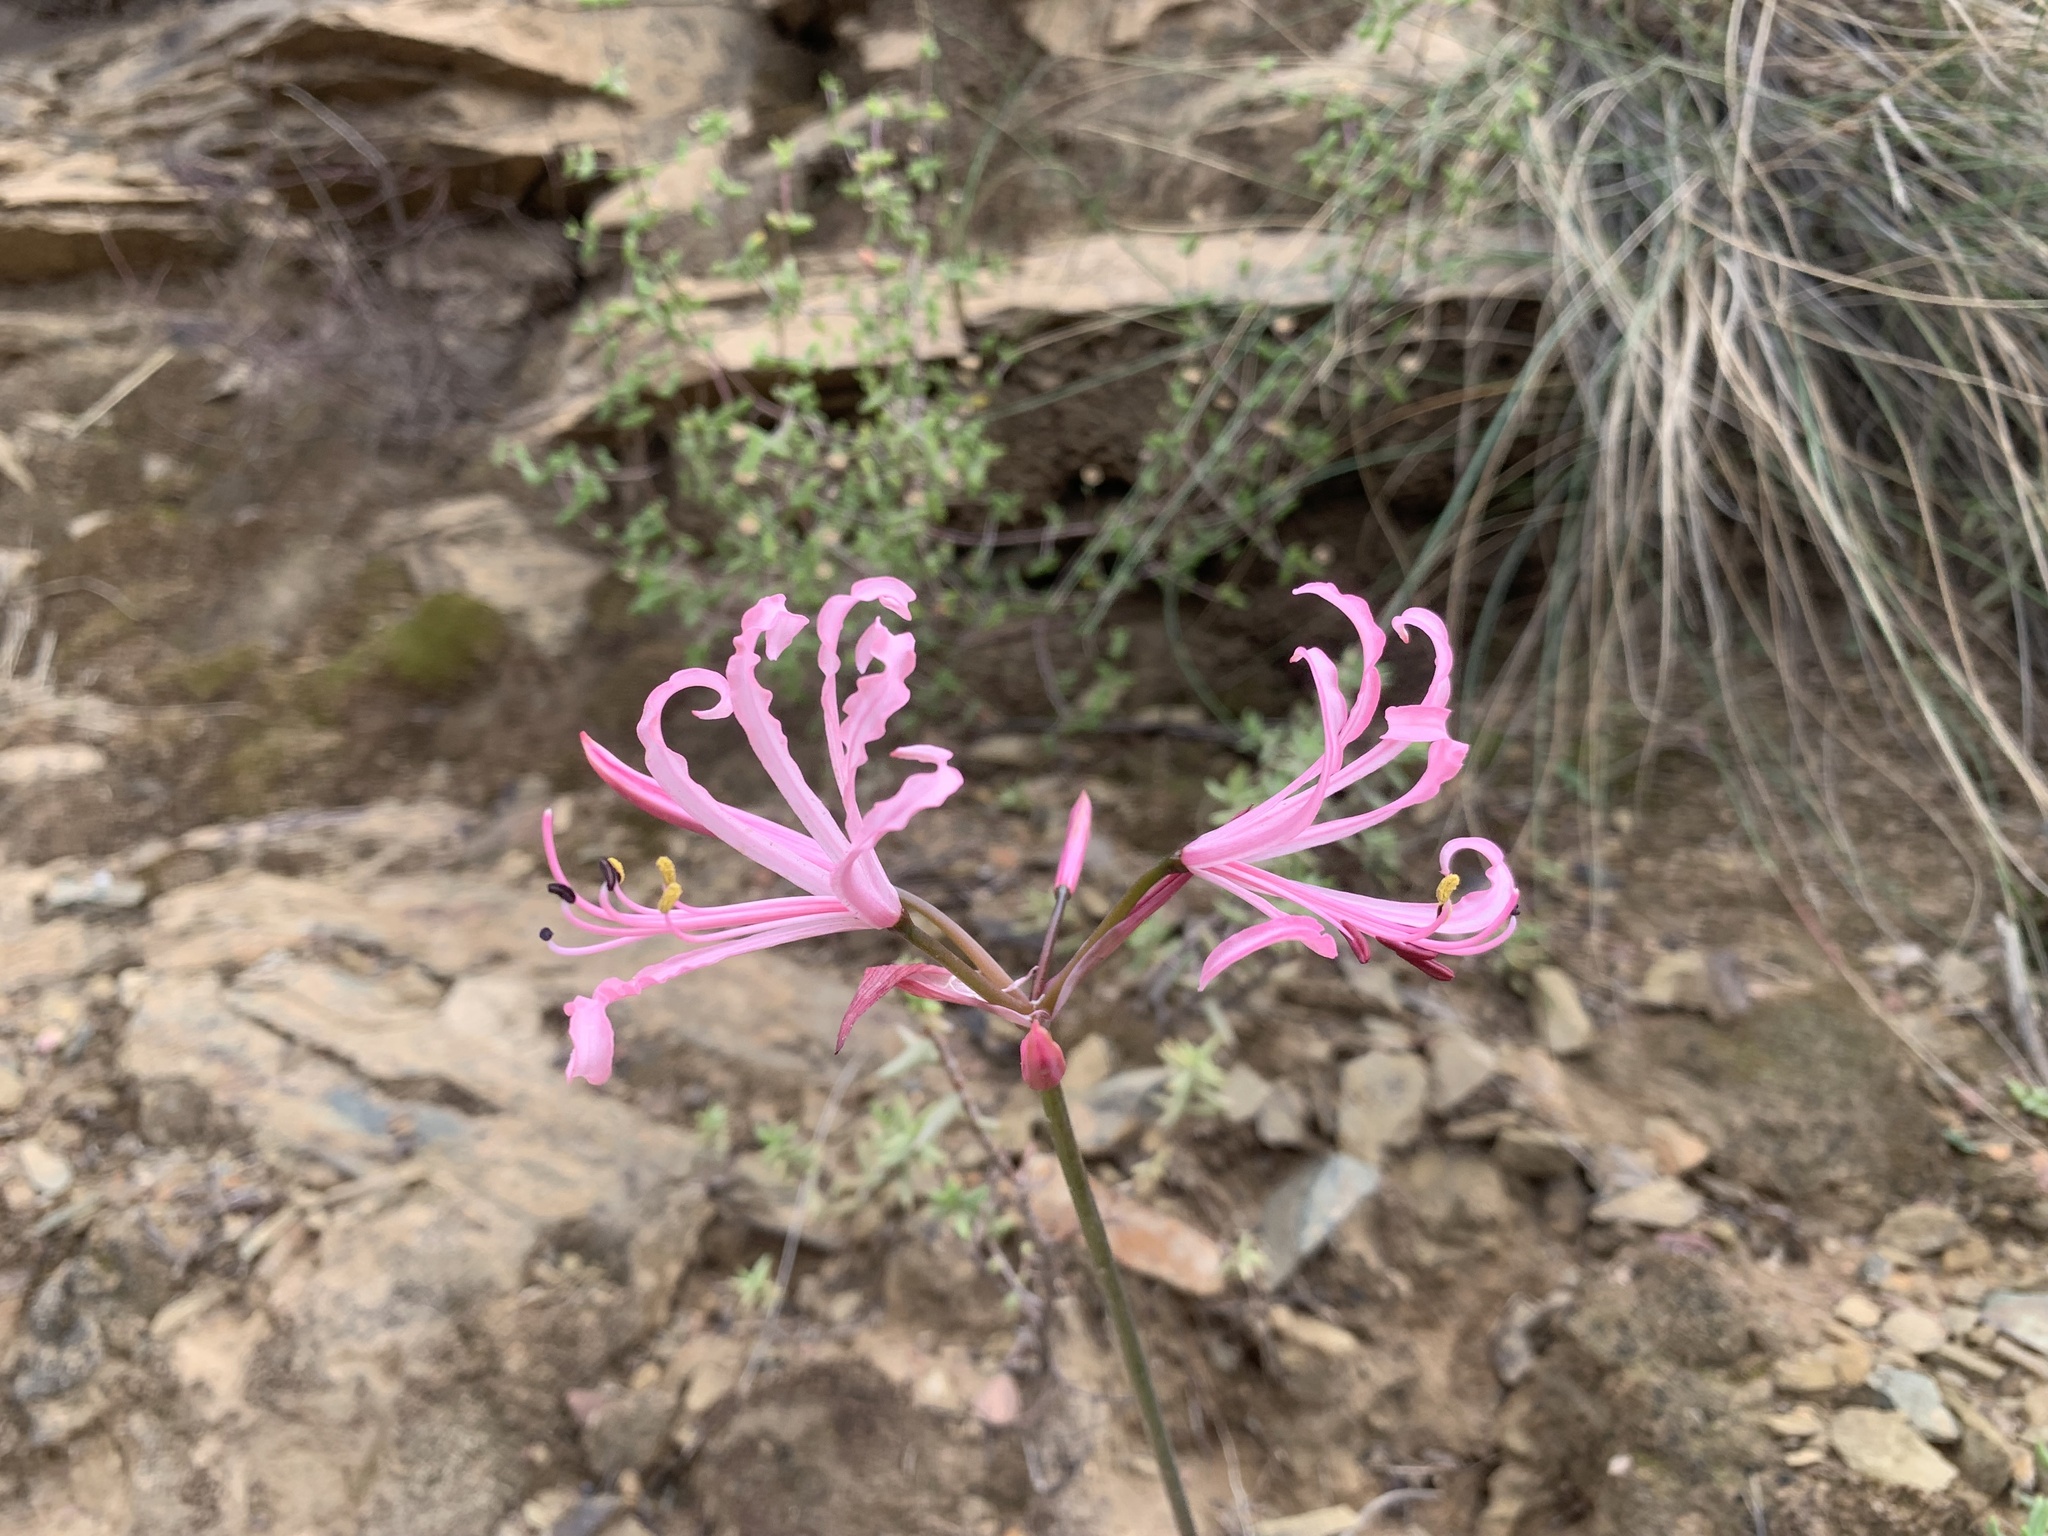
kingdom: Plantae
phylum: Tracheophyta
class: Liliopsida
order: Asparagales
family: Amaryllidaceae
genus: Nerine
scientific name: Nerine humilis
